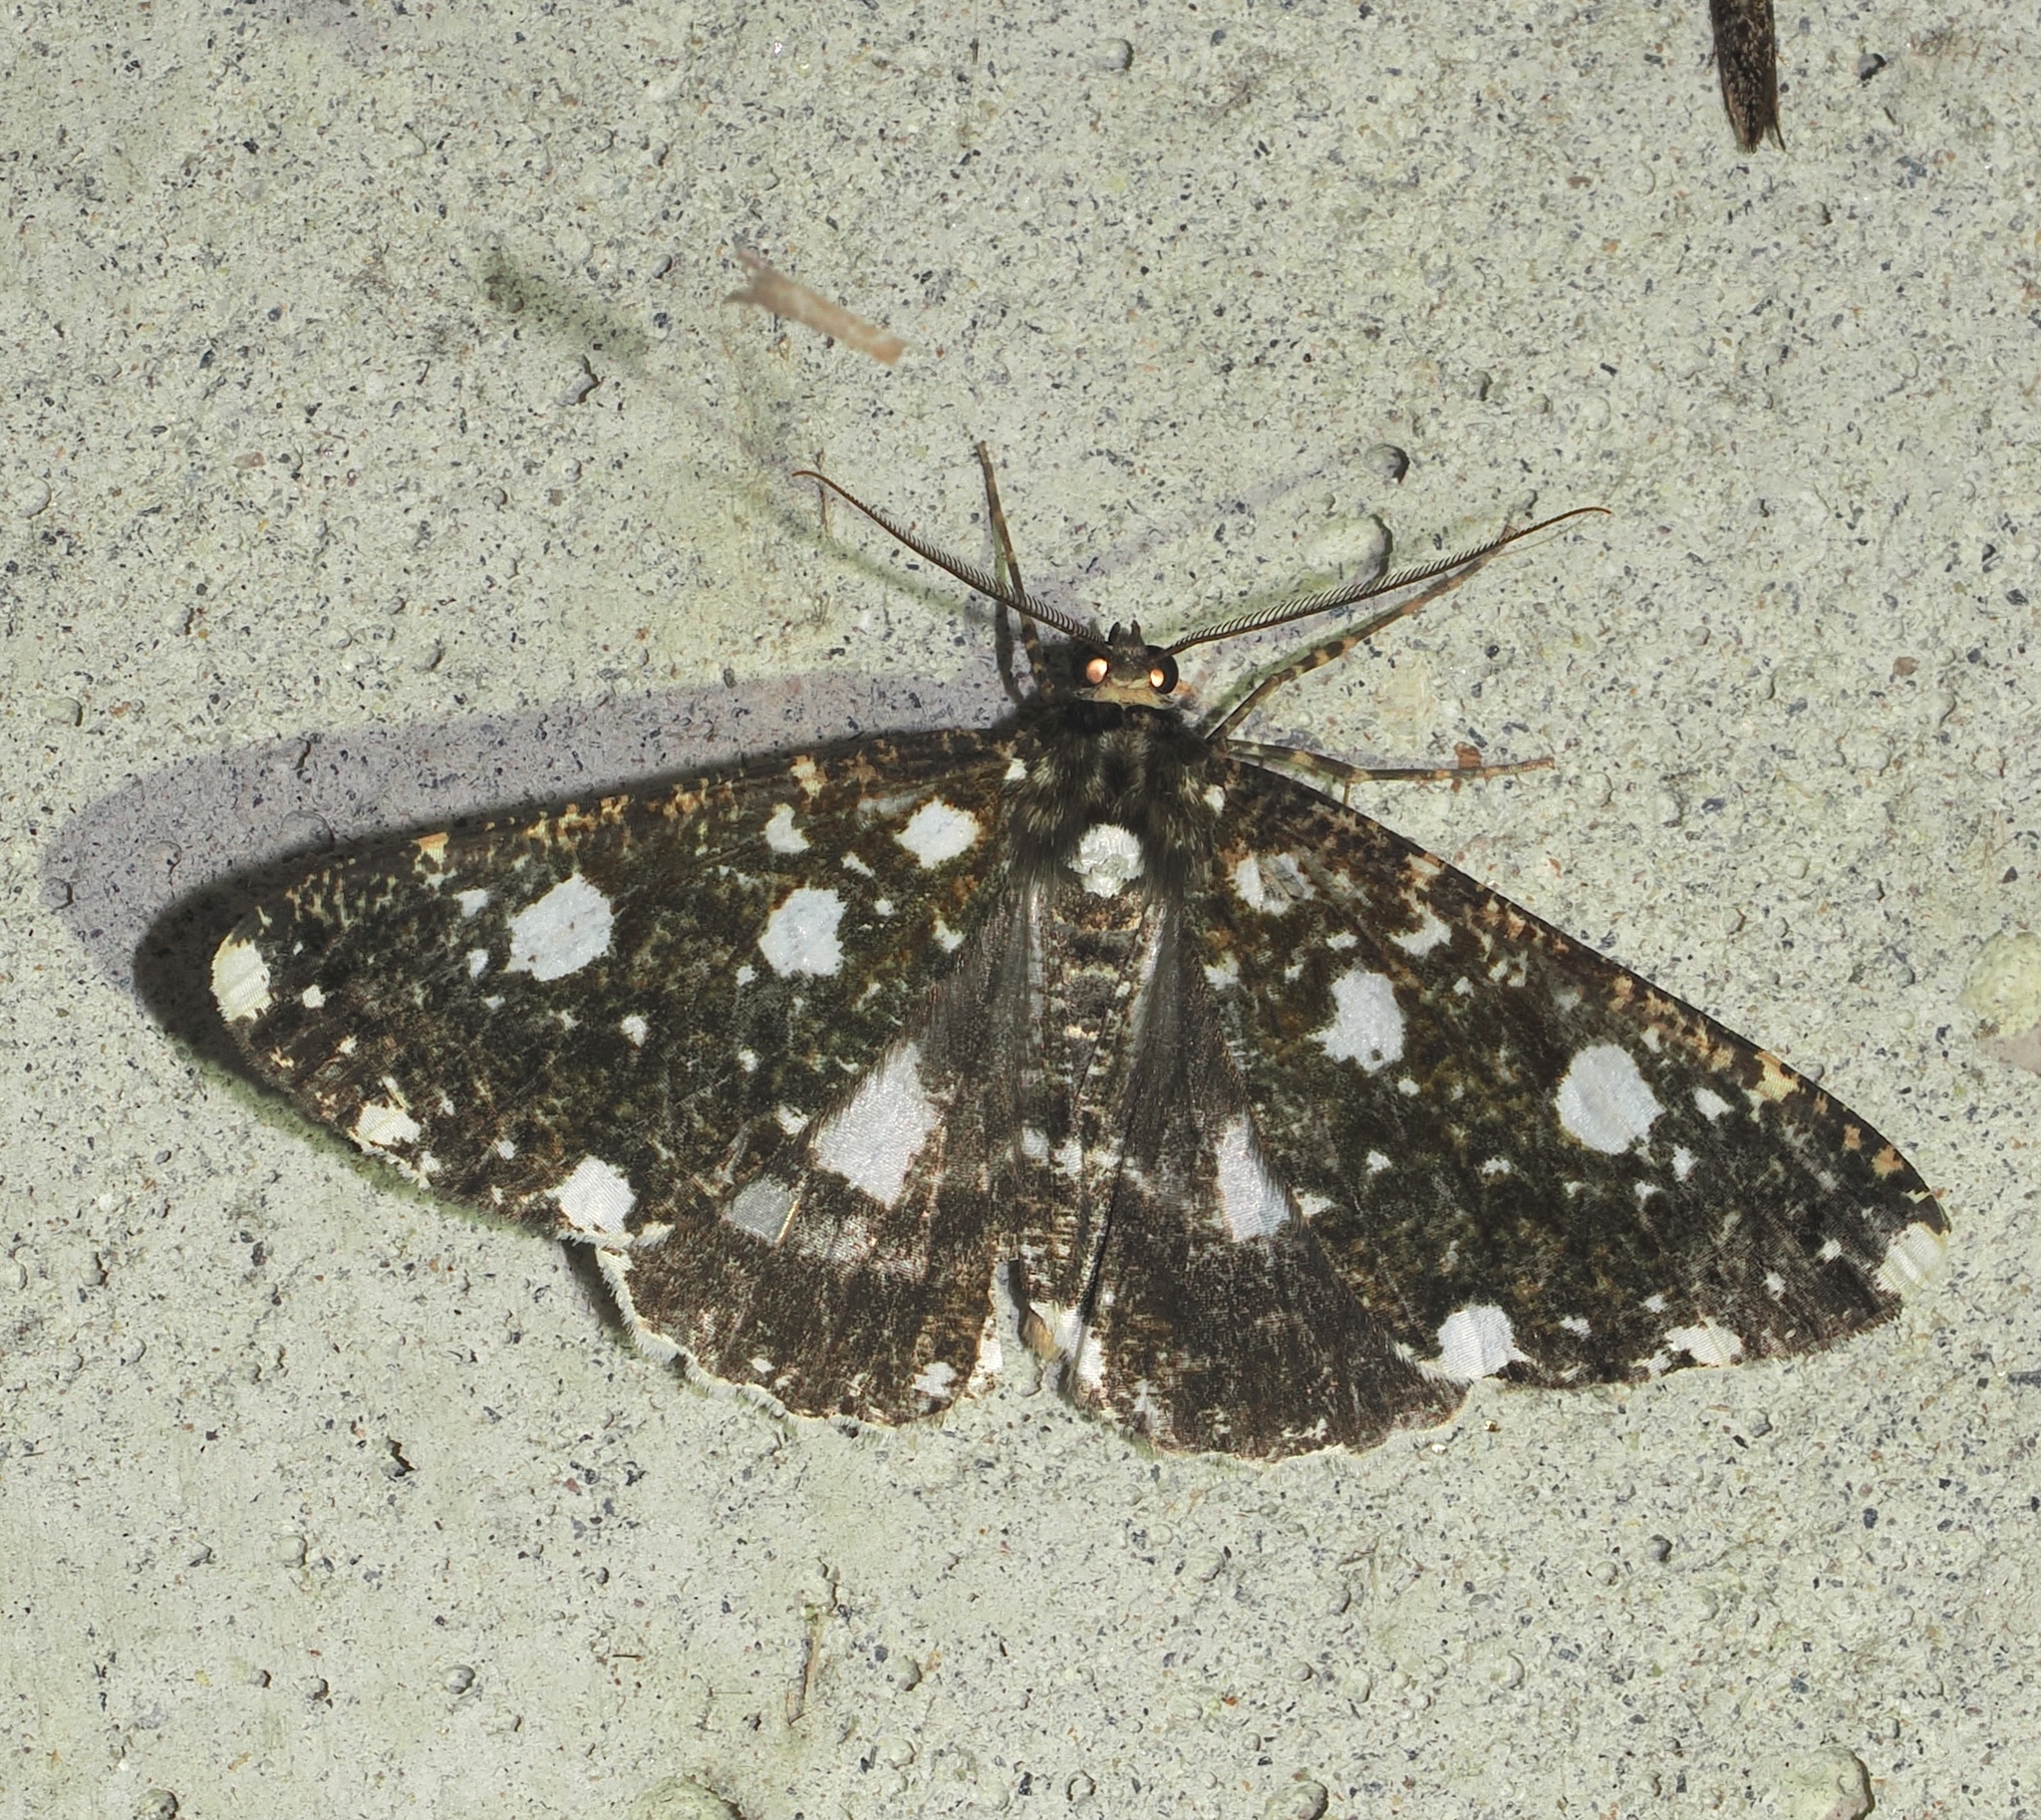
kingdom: Animalia
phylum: Arthropoda
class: Insecta
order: Lepidoptera
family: Geometridae
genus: Melanotesia
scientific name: Melanotesia siderata
